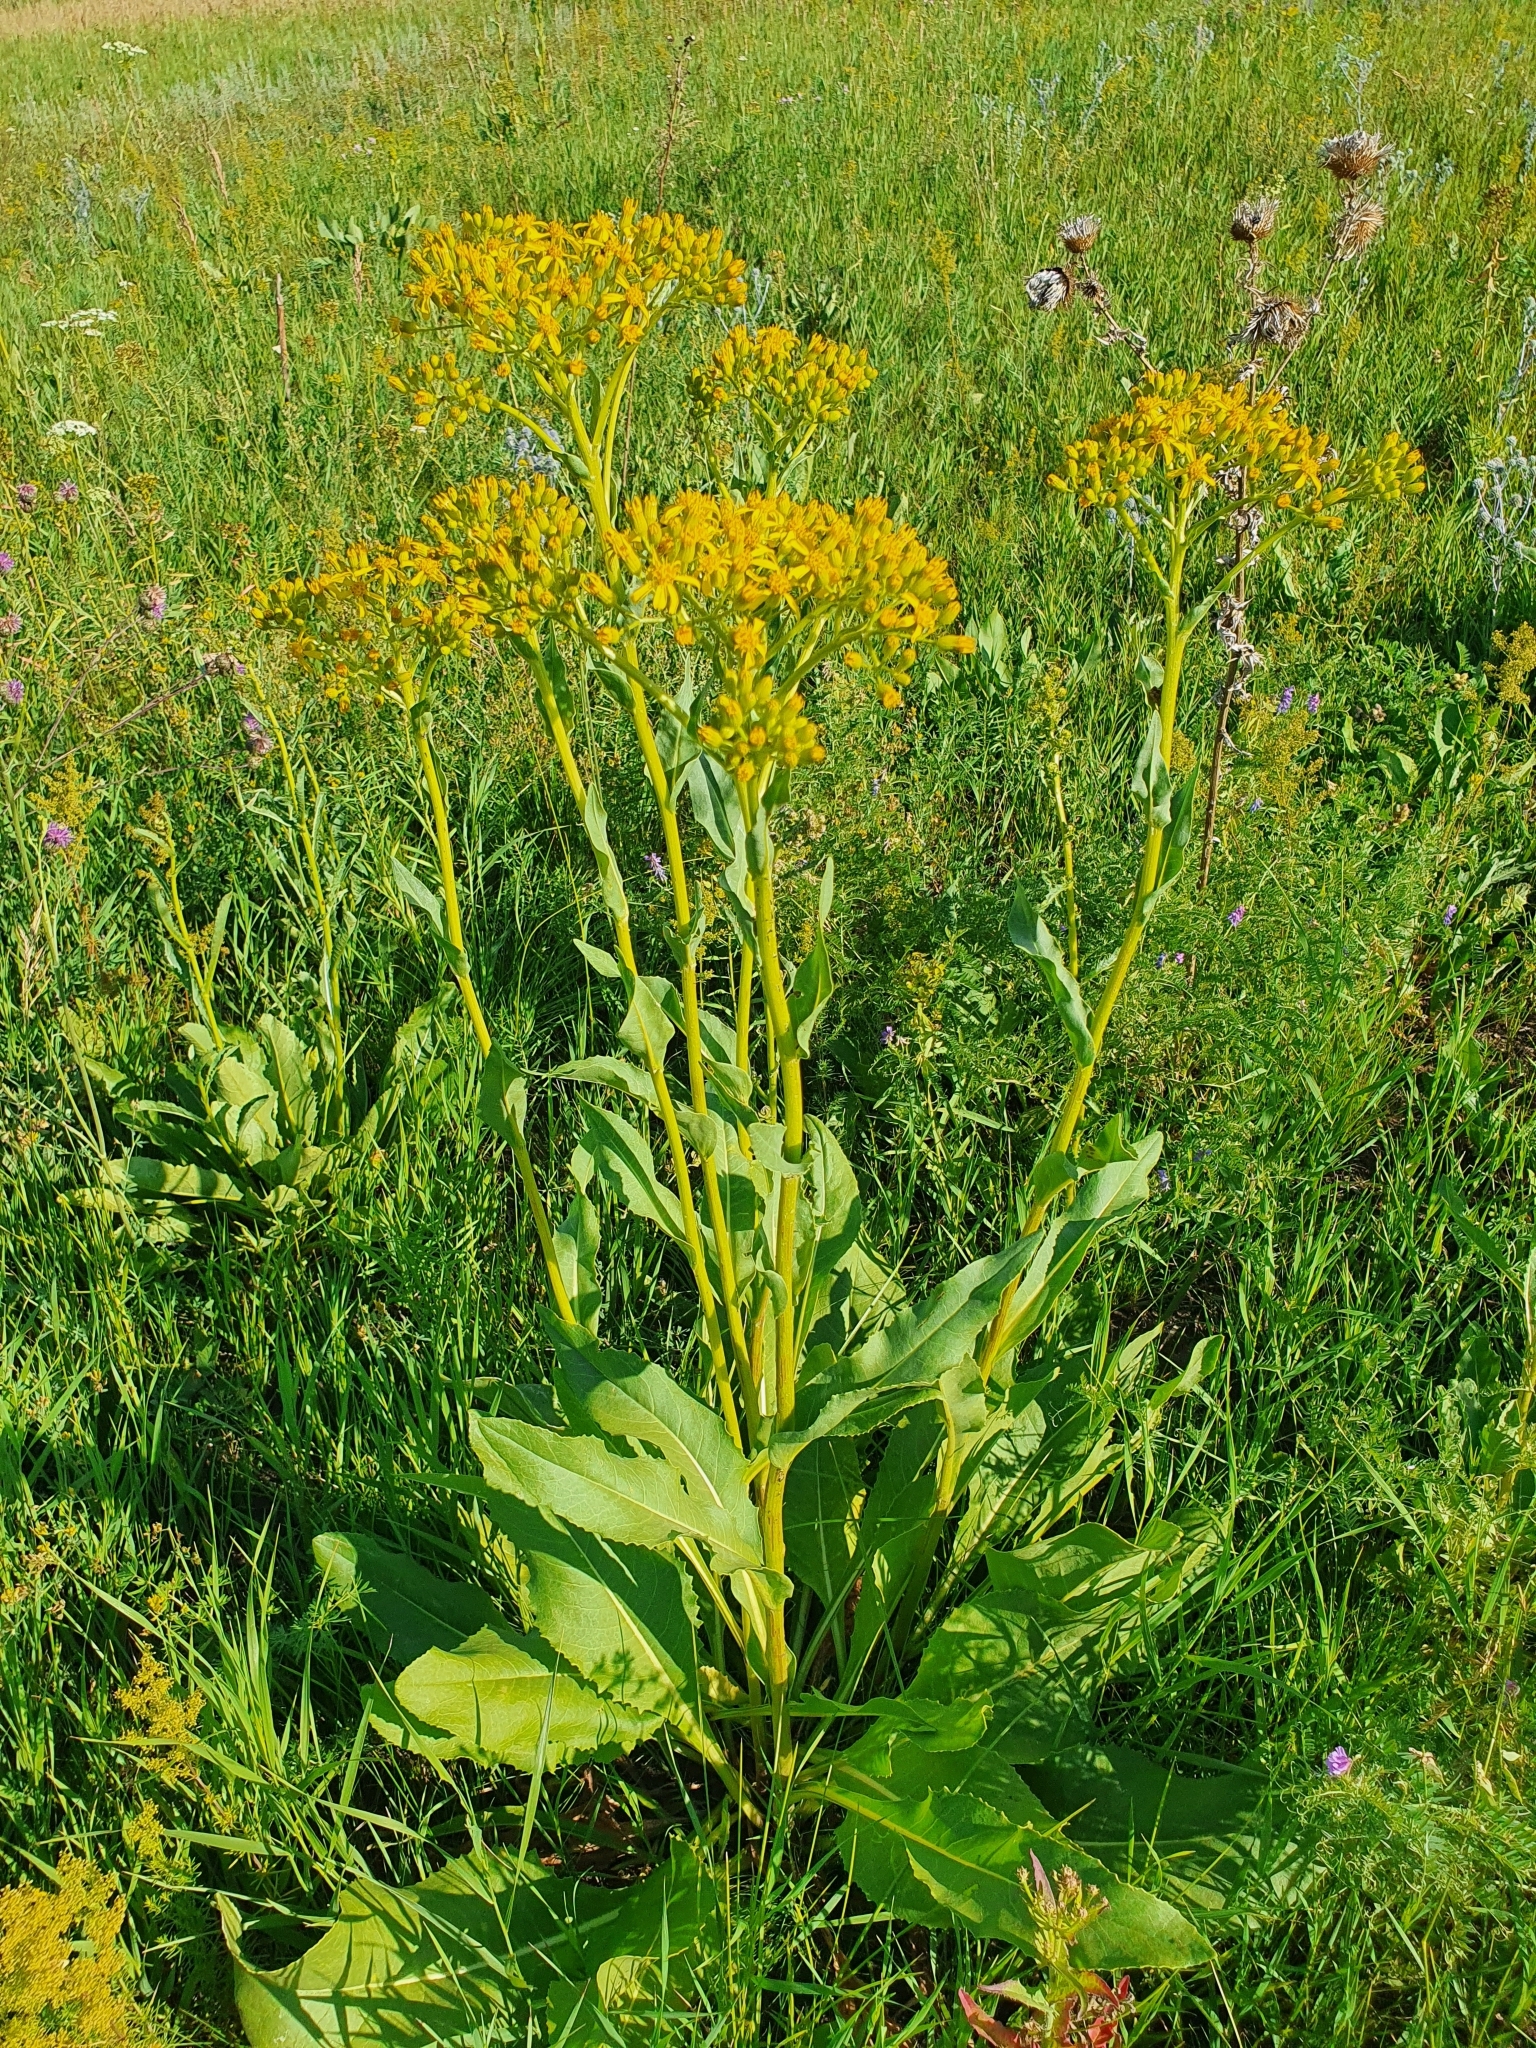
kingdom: Plantae
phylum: Tracheophyta
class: Magnoliopsida
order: Asterales
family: Asteraceae
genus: Senecio
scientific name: Senecio doria
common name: Golden ragwort
